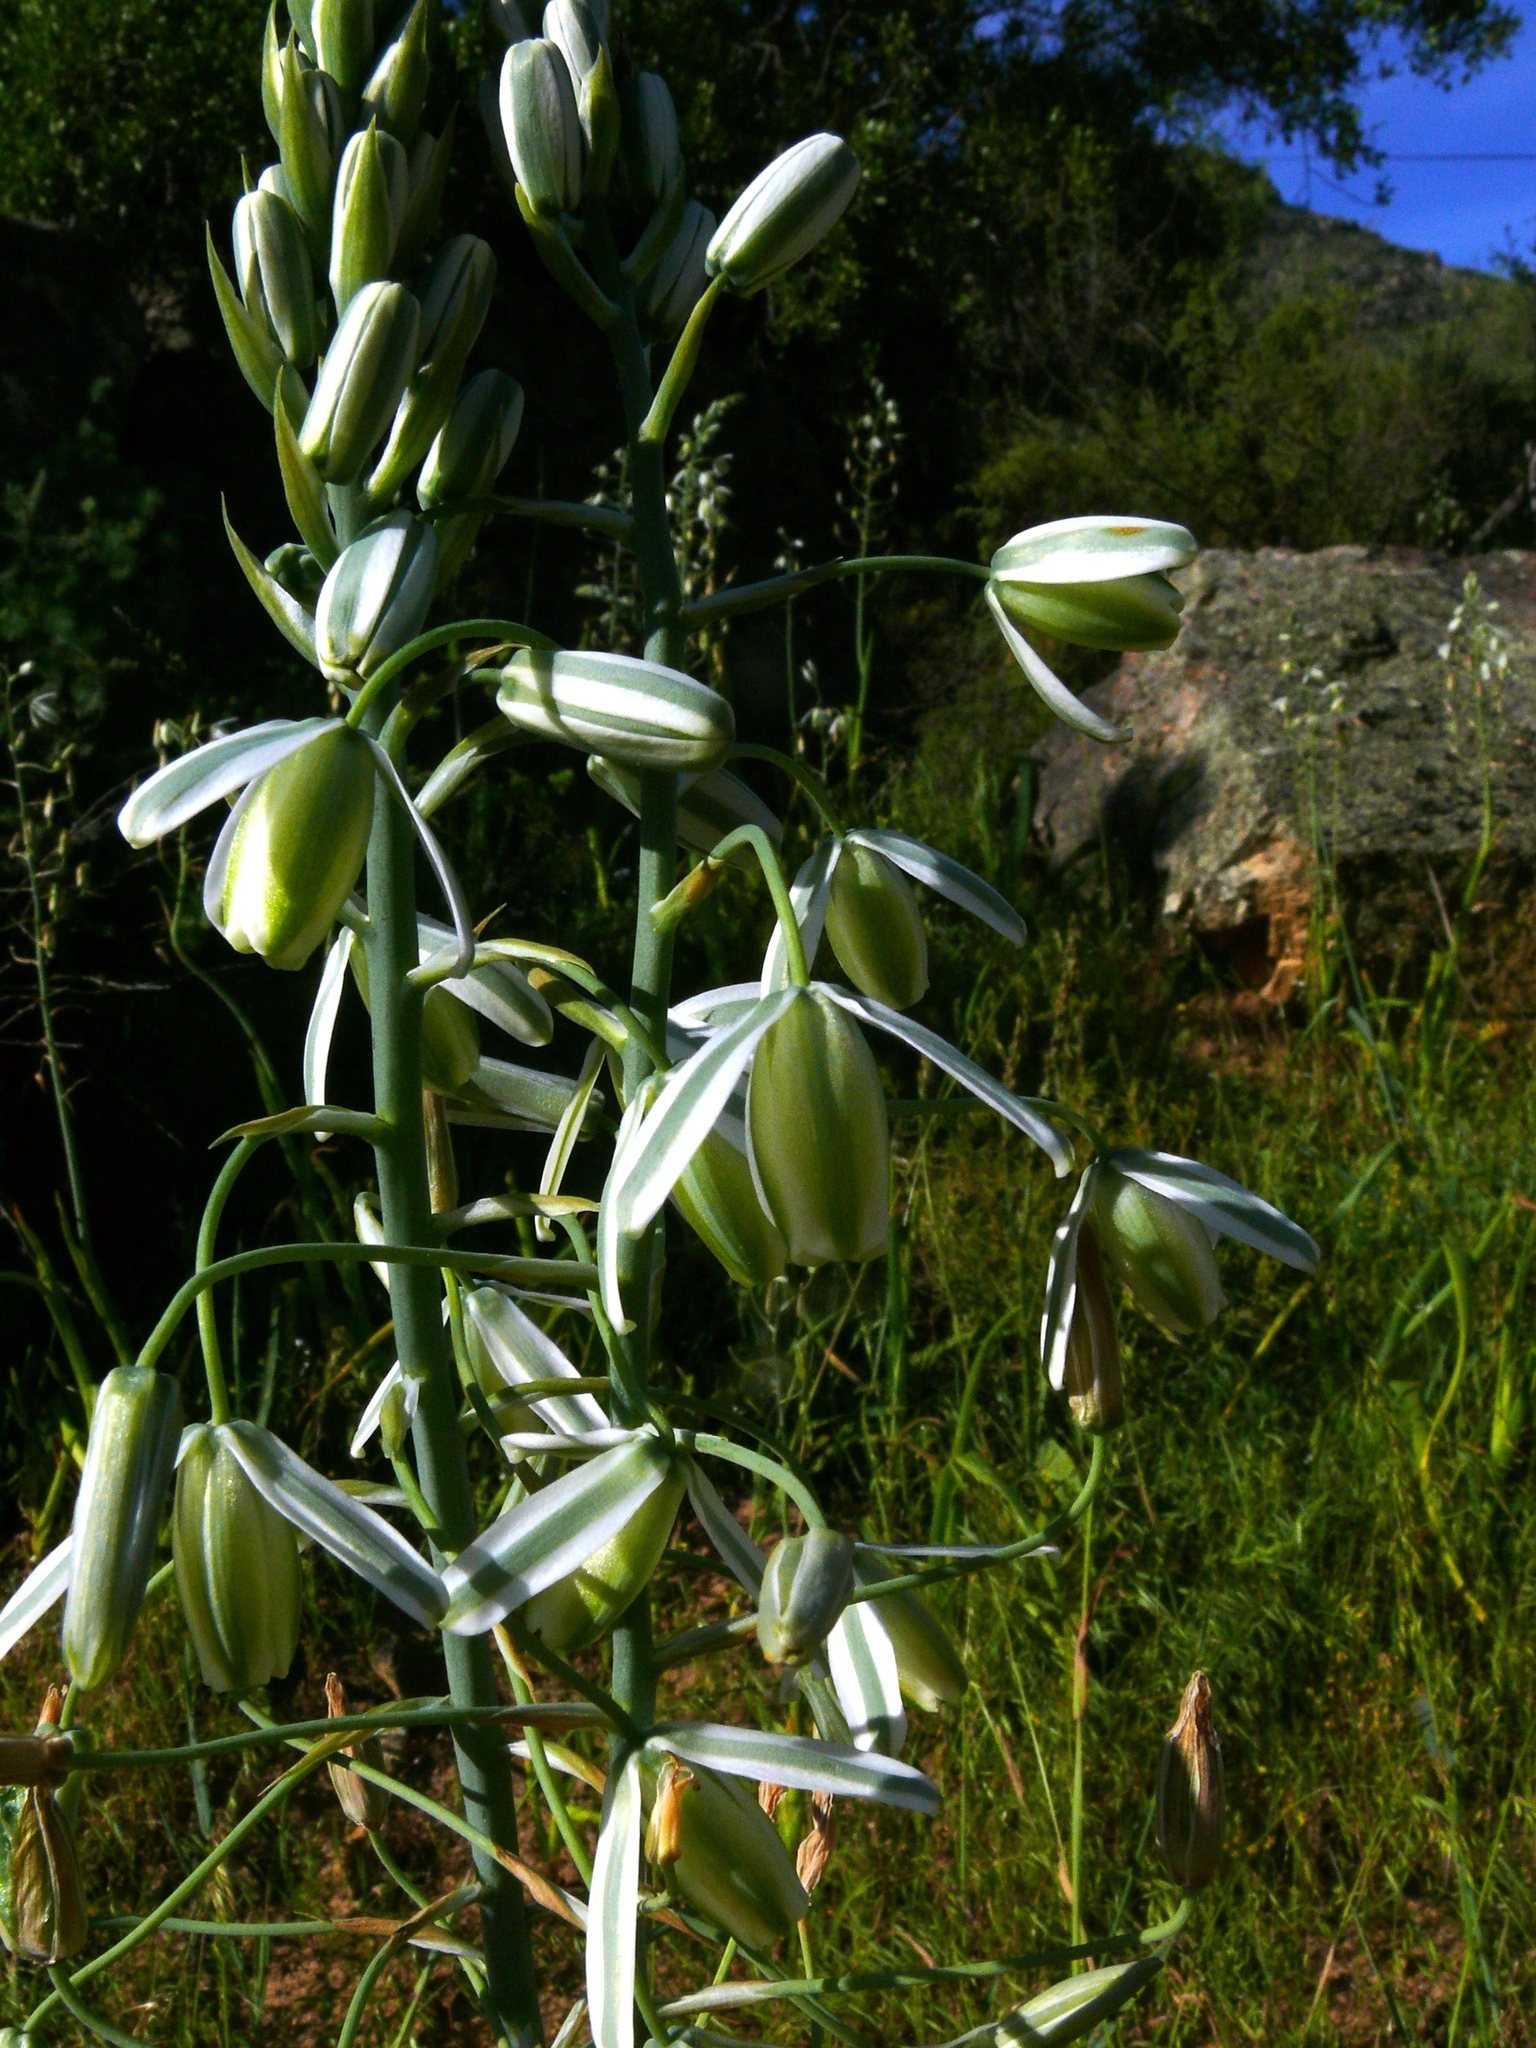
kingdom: Plantae
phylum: Tracheophyta
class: Liliopsida
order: Asparagales
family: Asparagaceae
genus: Albuca
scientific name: Albuca canadensis
